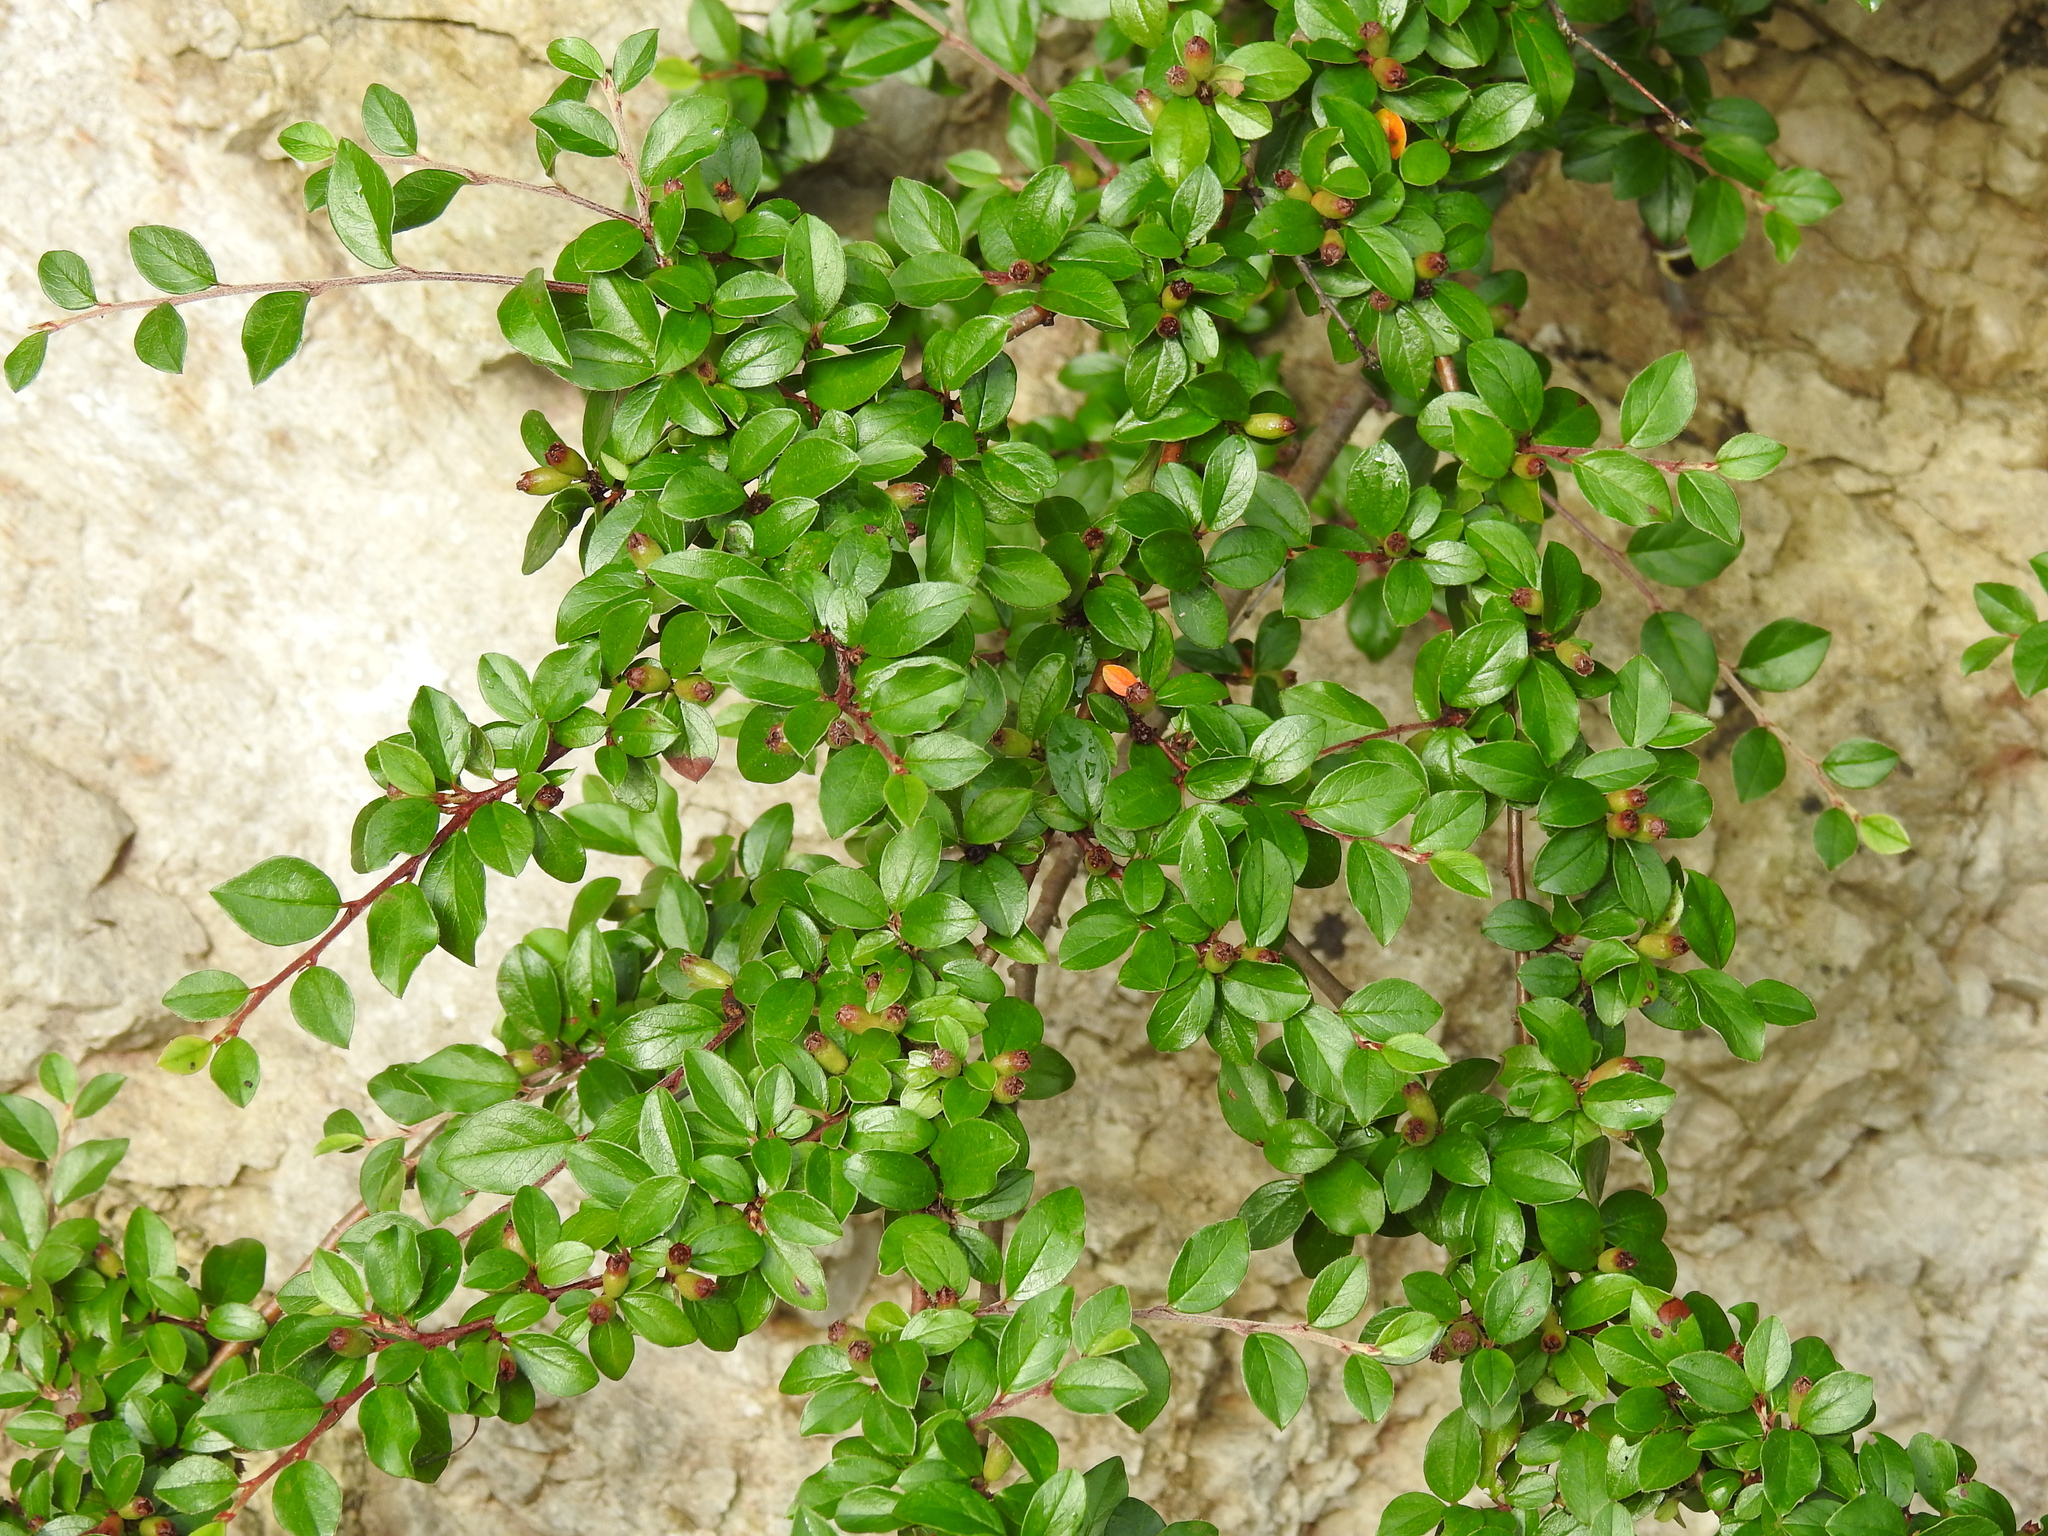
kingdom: Plantae
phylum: Tracheophyta
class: Magnoliopsida
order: Rosales
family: Rosaceae
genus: Cotoneaster
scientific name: Cotoneaster divaricatus
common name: Spreading cotoneaster
